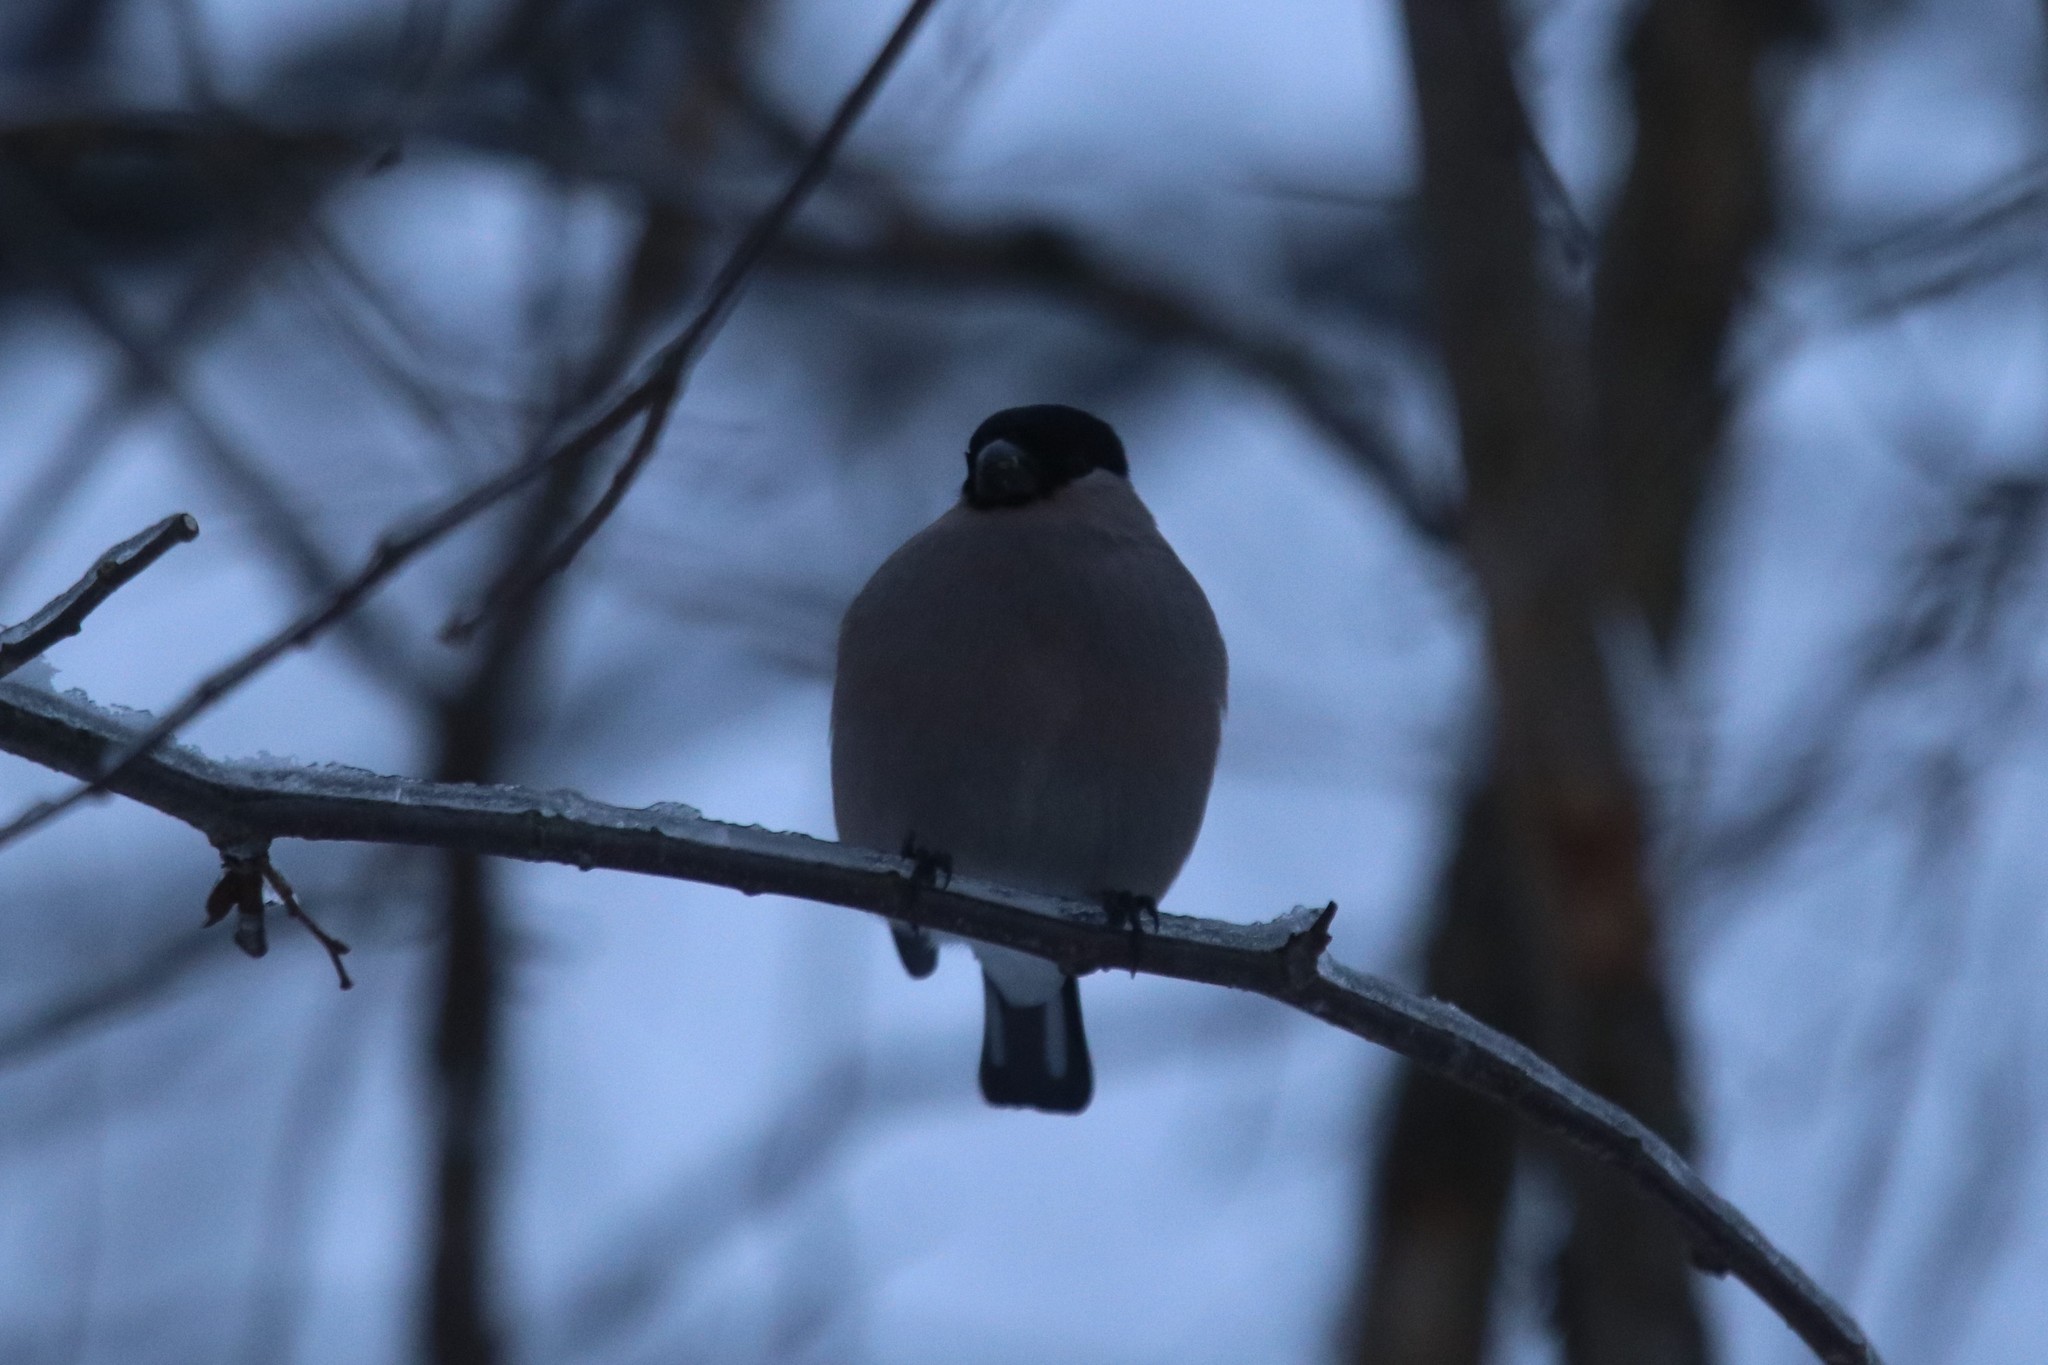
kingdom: Animalia
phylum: Chordata
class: Aves
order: Passeriformes
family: Fringillidae
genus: Pyrrhula
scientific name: Pyrrhula pyrrhula
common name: Eurasian bullfinch
